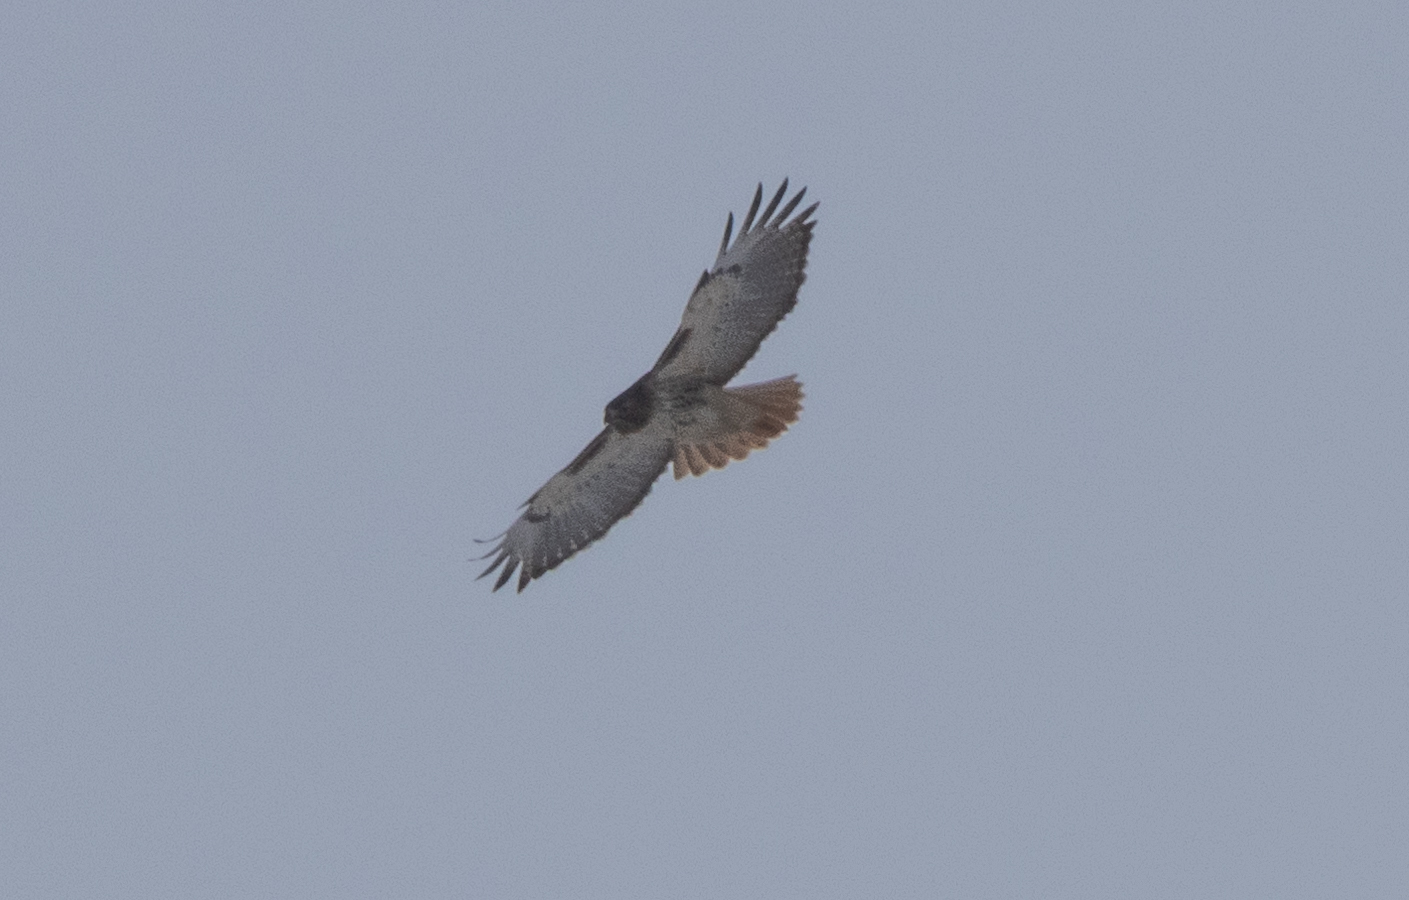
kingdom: Animalia
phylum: Chordata
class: Aves
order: Accipitriformes
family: Accipitridae
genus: Buteo
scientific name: Buteo jamaicensis
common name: Red-tailed hawk
